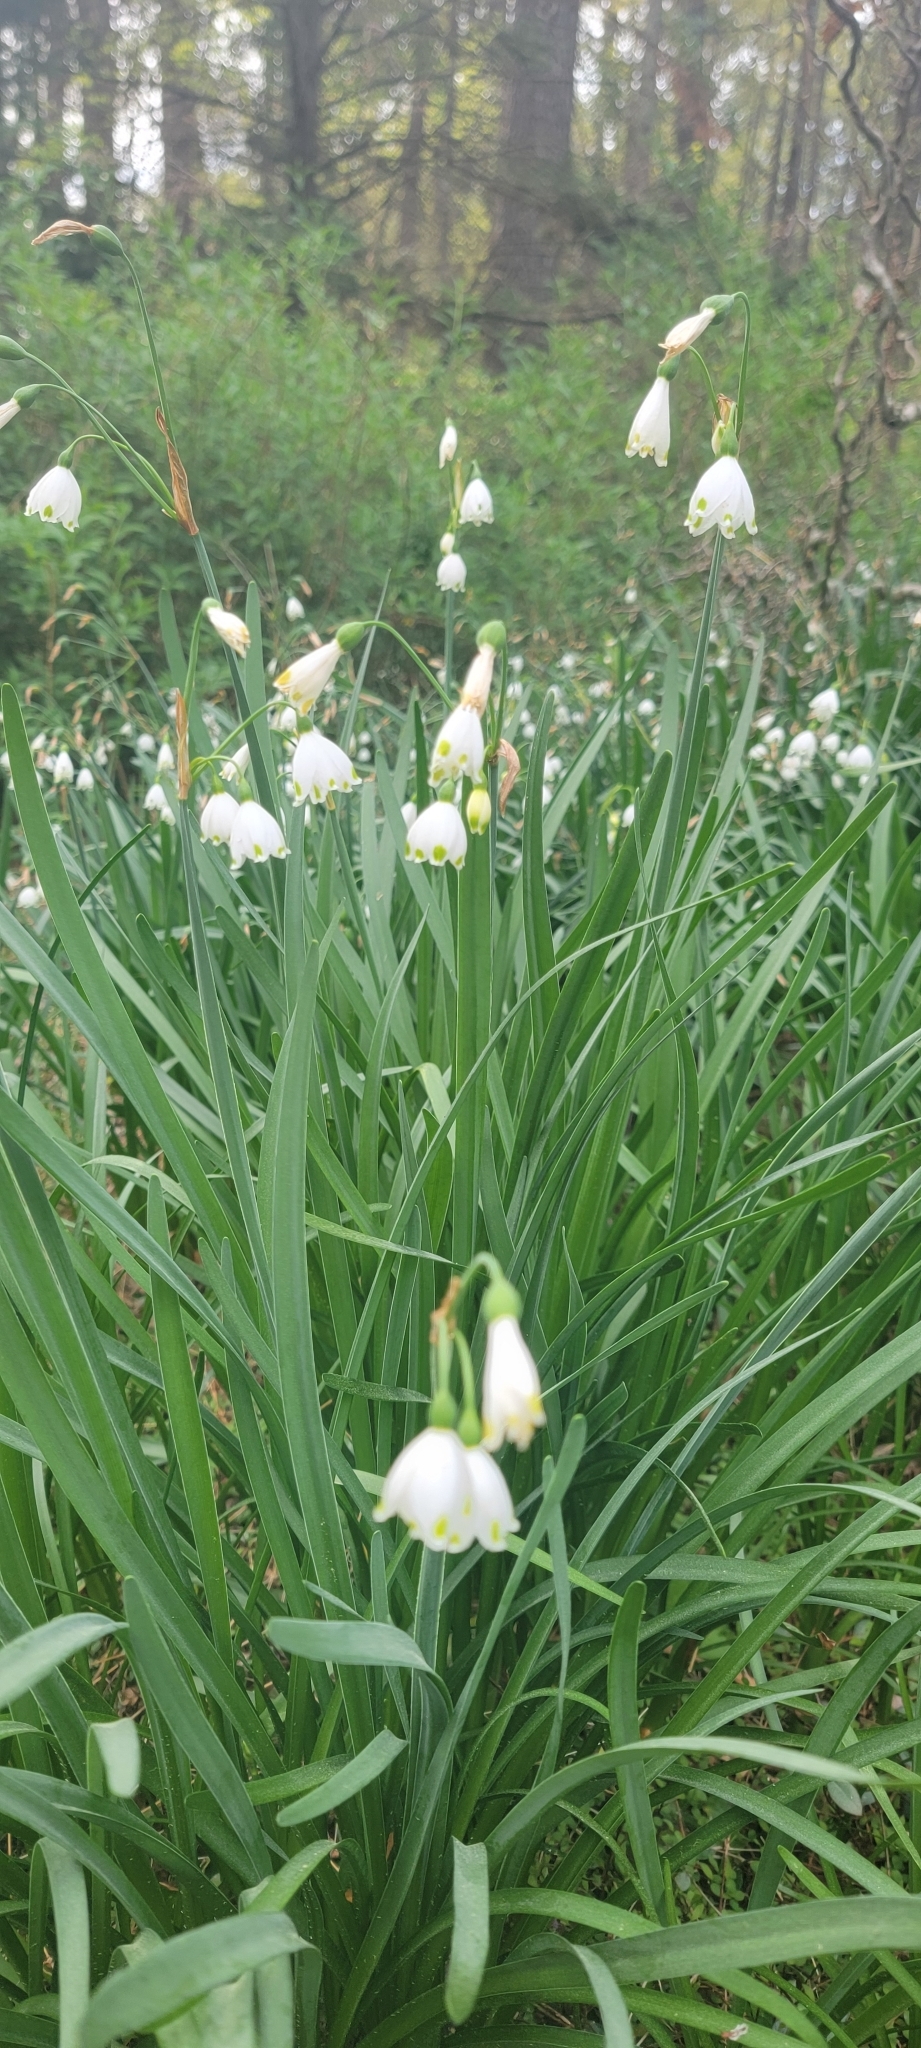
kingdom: Plantae
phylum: Tracheophyta
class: Liliopsida
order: Asparagales
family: Amaryllidaceae
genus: Leucojum
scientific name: Leucojum aestivum
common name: Summer snowflake
